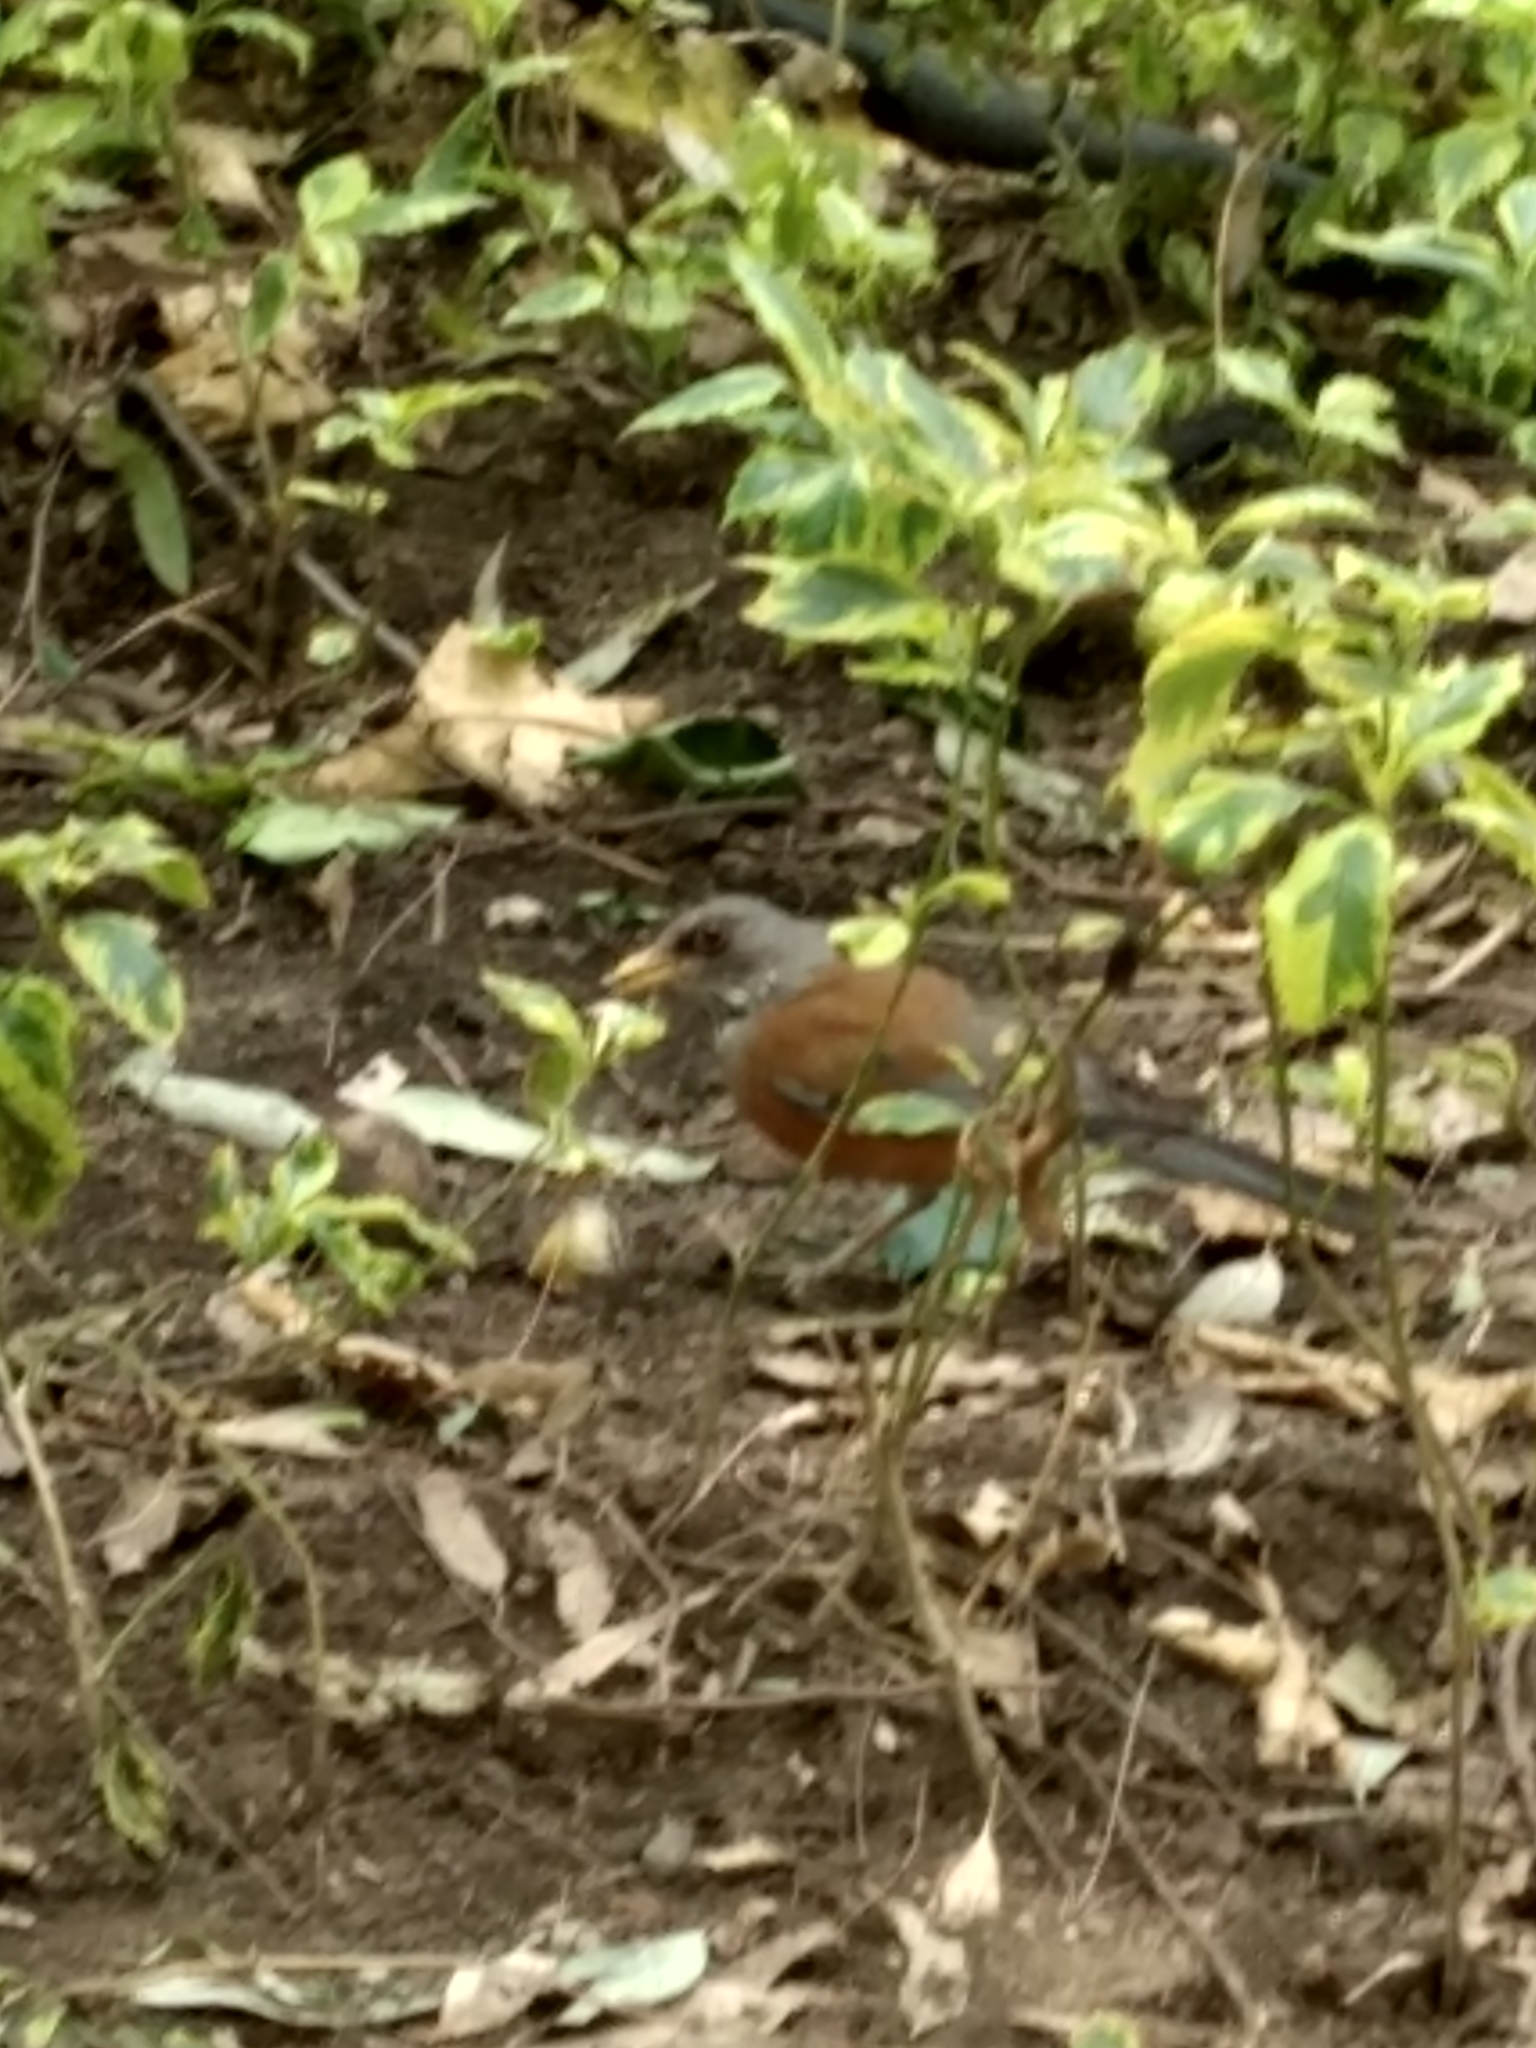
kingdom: Animalia
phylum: Chordata
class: Aves
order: Passeriformes
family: Turdidae
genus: Turdus
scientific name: Turdus rufopalliatus
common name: Rufous-backed robin
